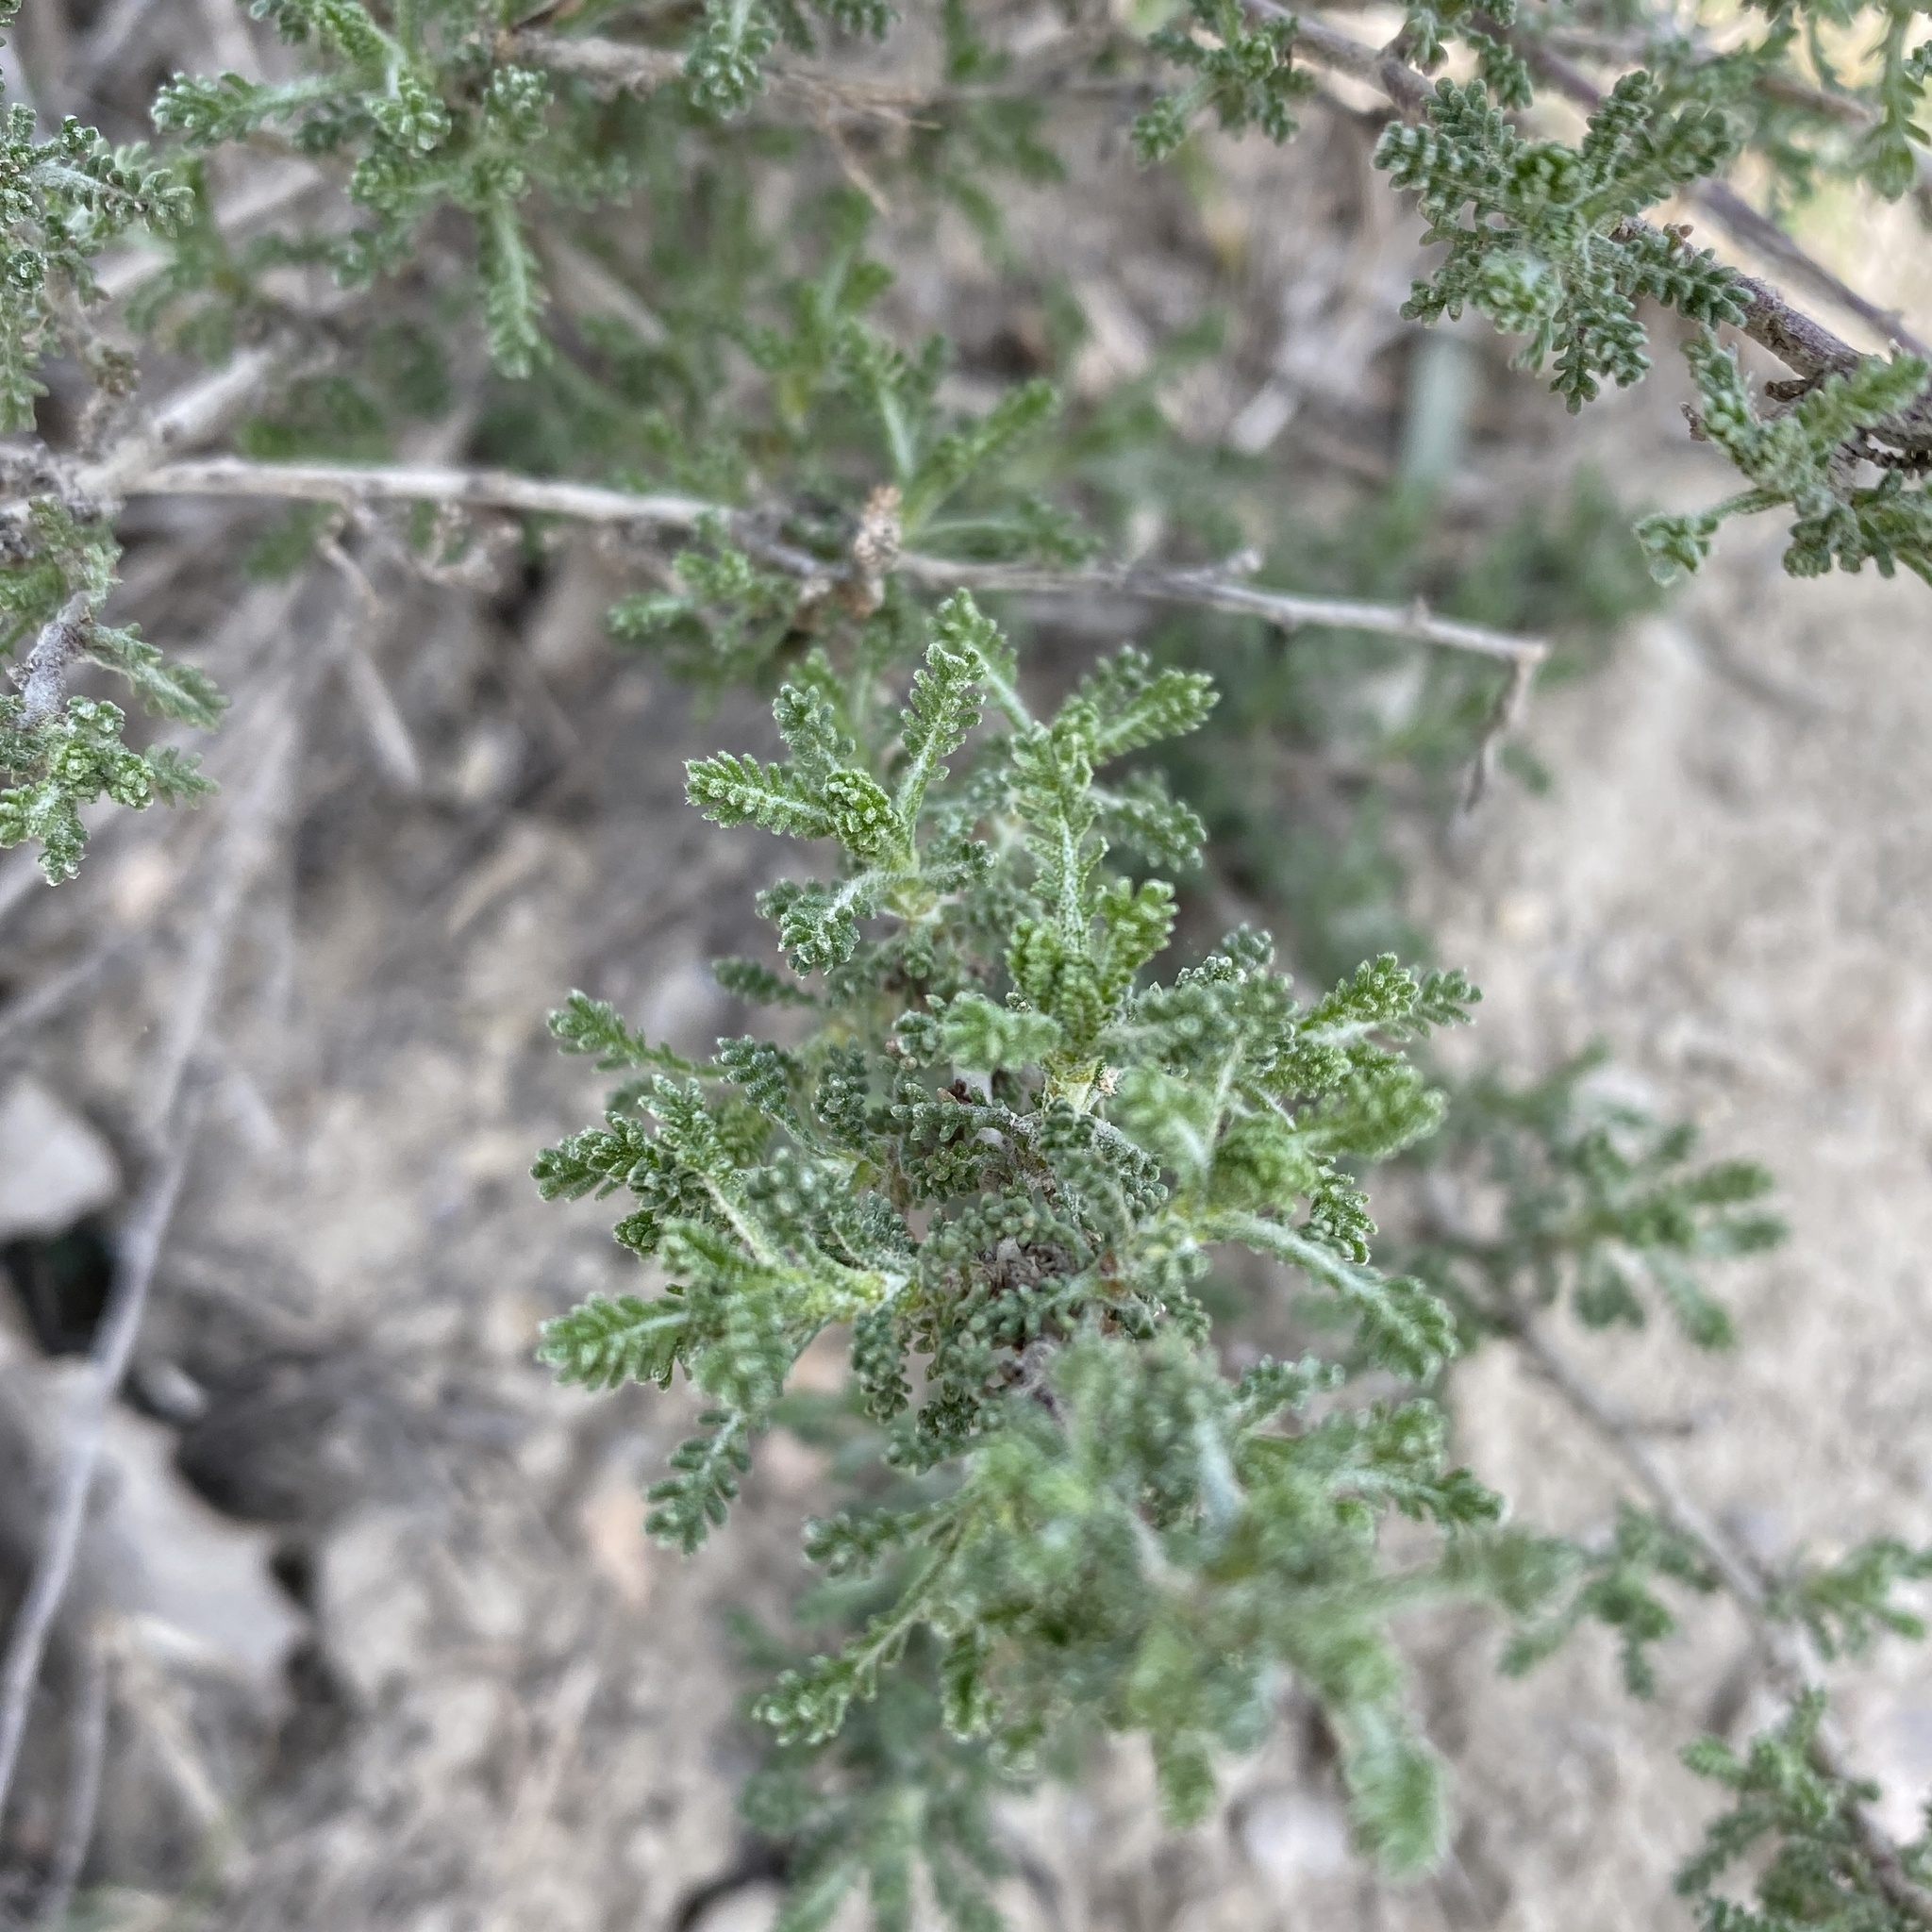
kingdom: Plantae
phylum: Tracheophyta
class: Magnoliopsida
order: Asterales
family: Asteraceae
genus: Santolina
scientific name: Santolina chamaecyparissus
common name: Lavender-cotton
